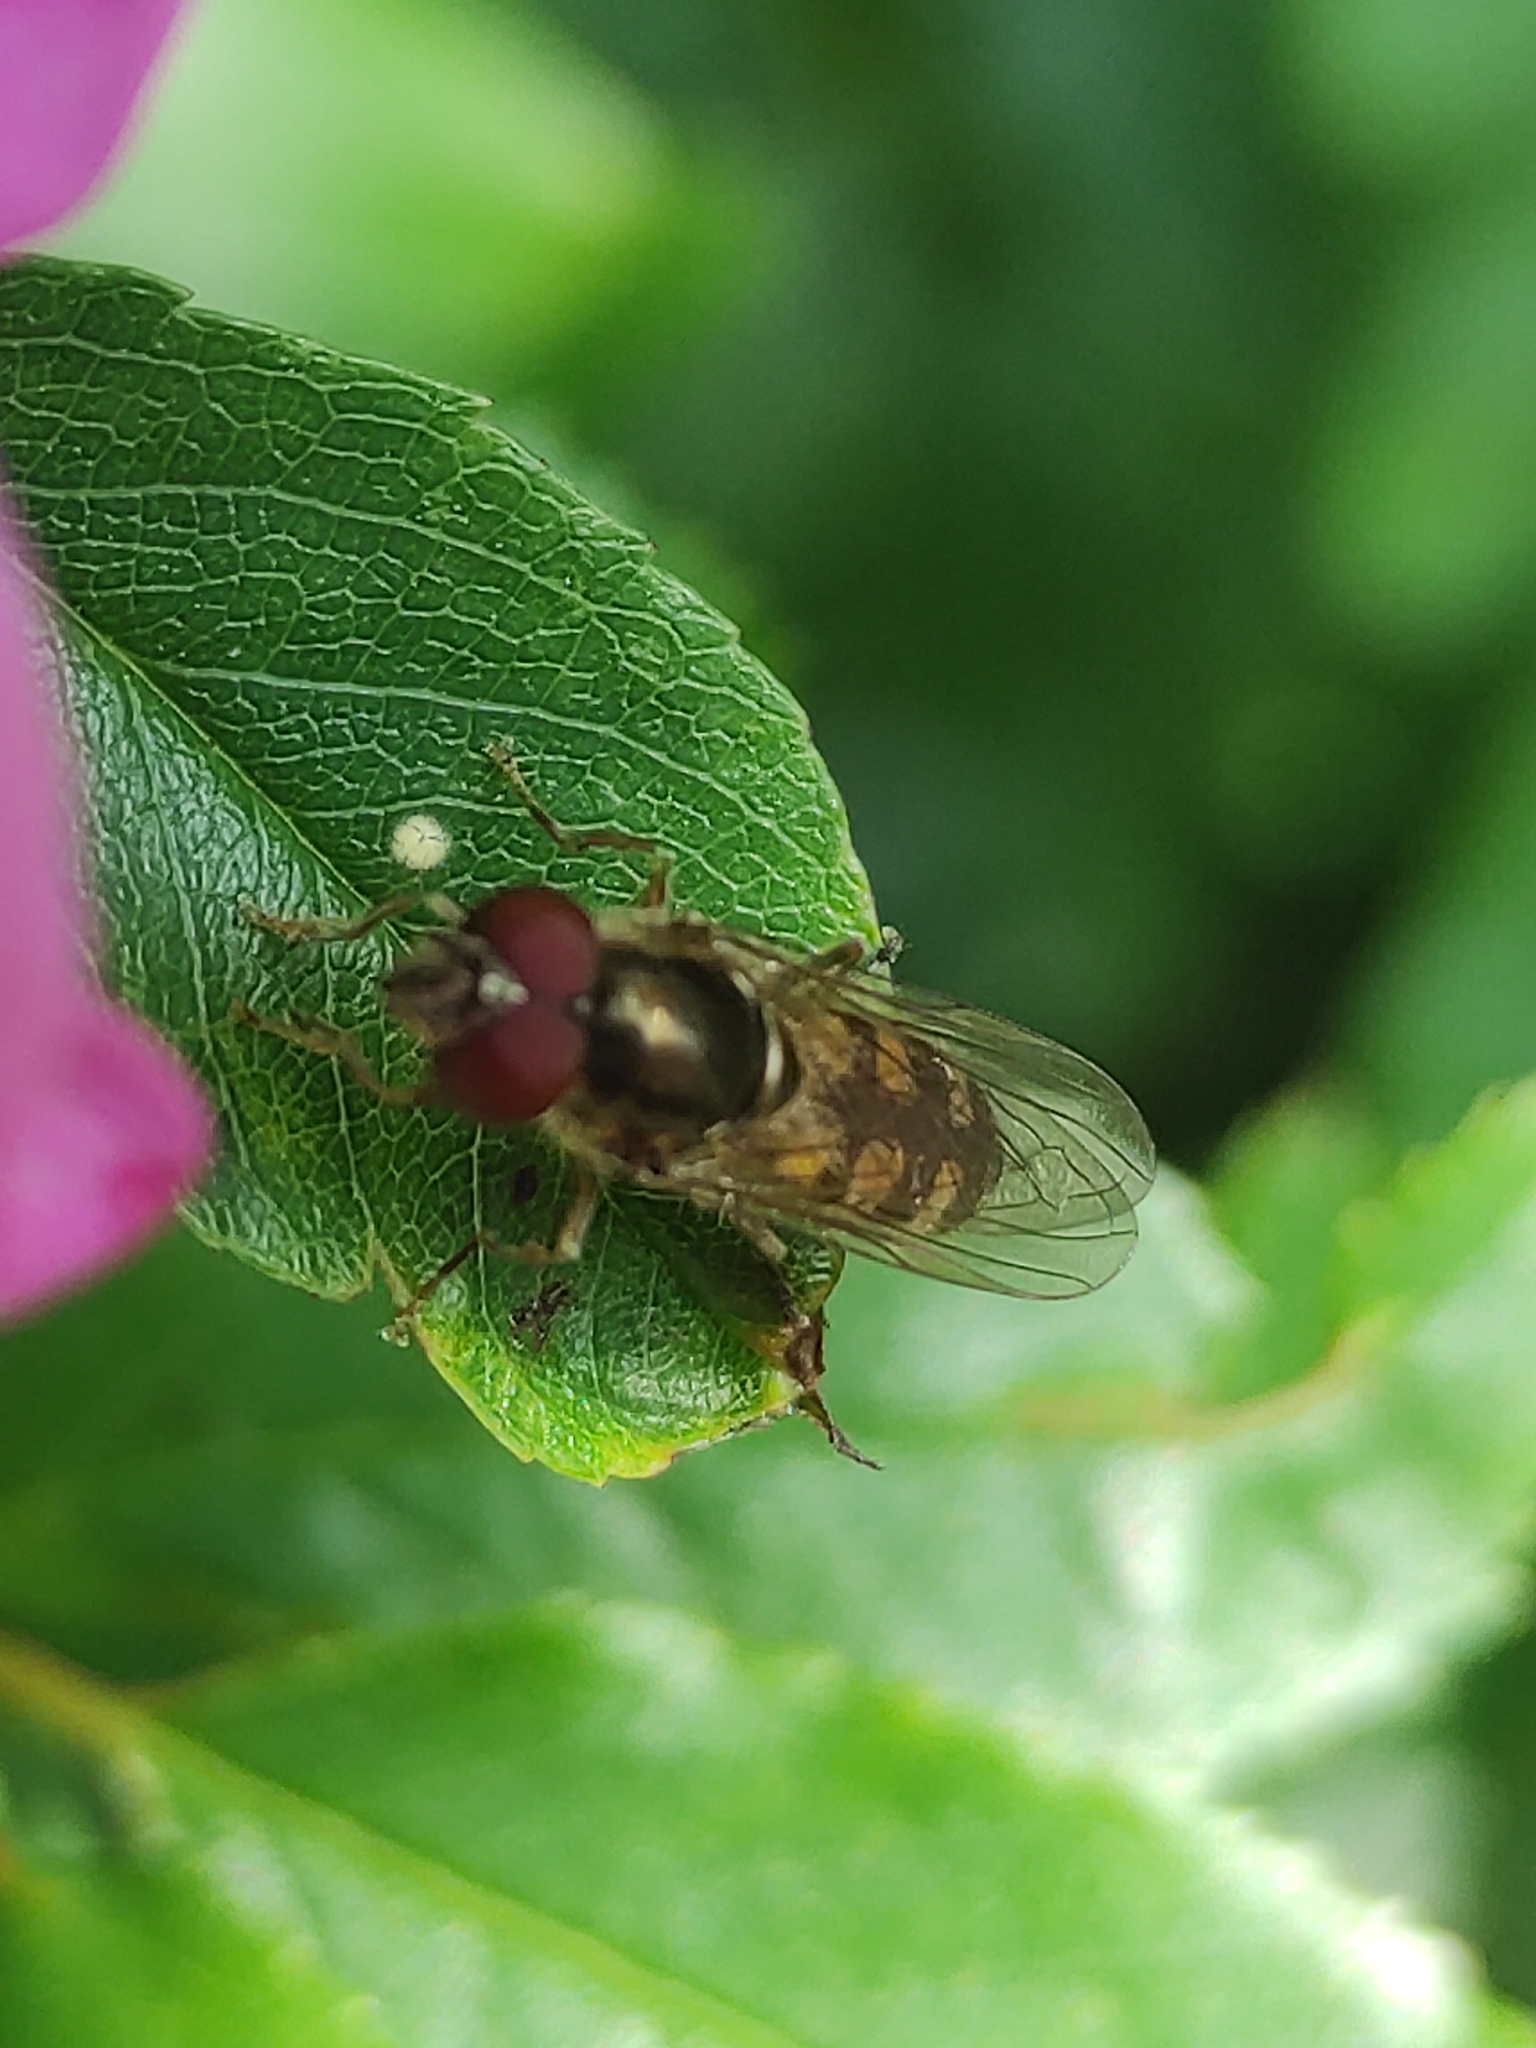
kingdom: Animalia
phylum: Arthropoda
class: Insecta
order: Diptera
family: Syrphidae
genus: Platycheirus
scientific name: Platycheirus peltatus
